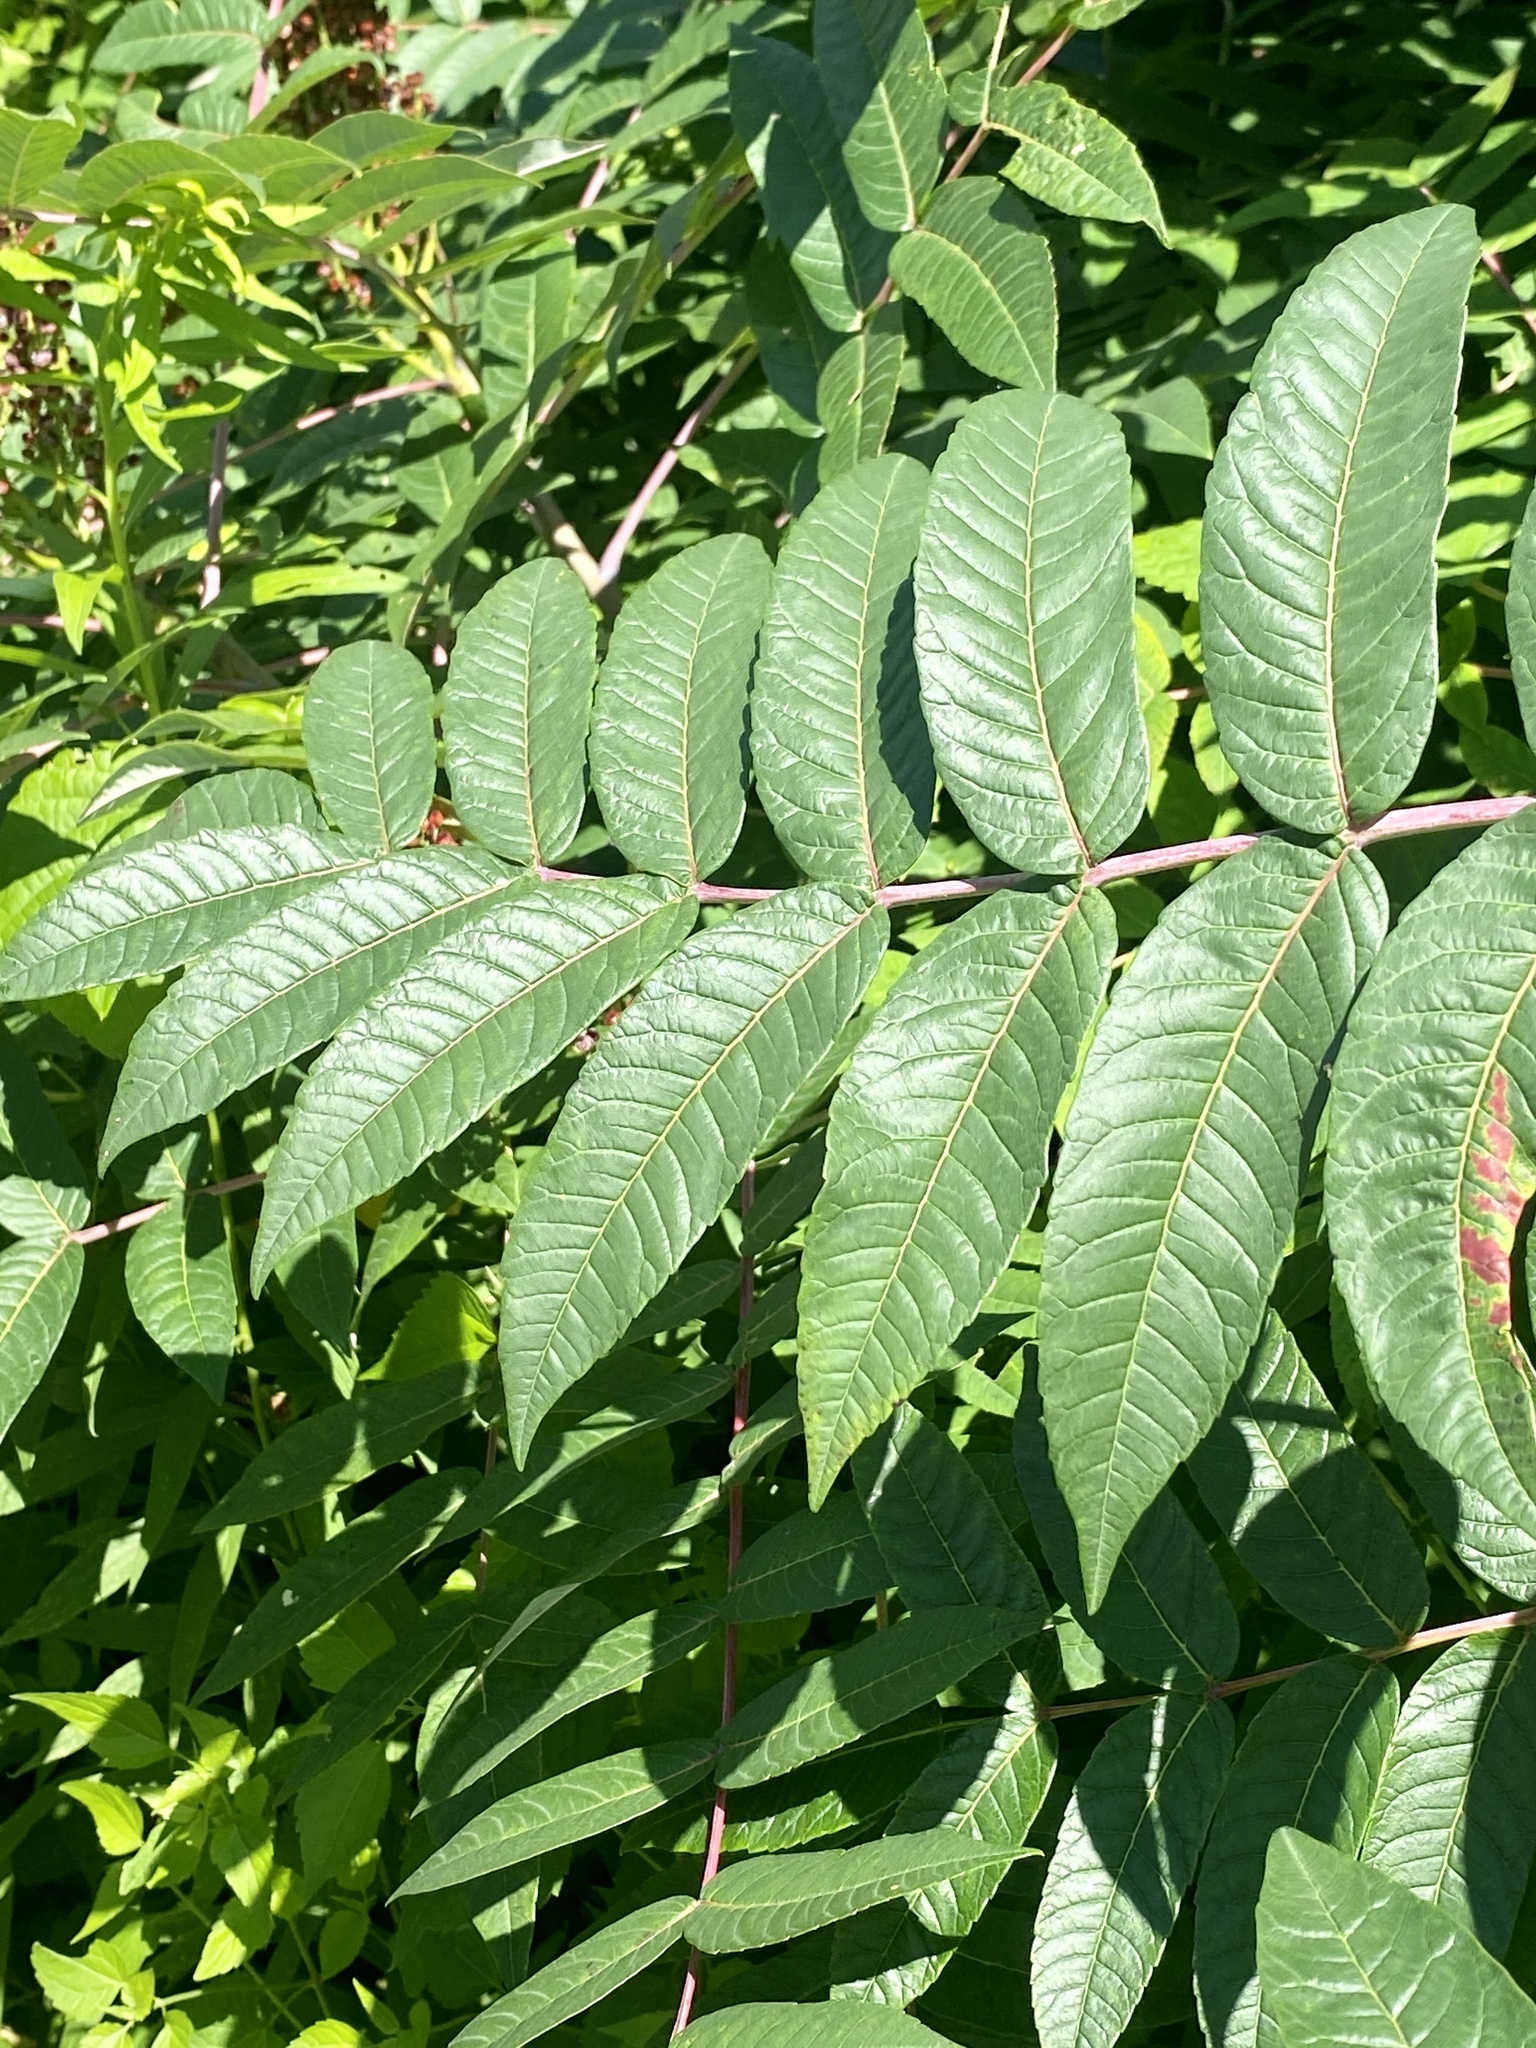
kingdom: Plantae
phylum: Tracheophyta
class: Magnoliopsida
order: Sapindales
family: Anacardiaceae
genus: Rhus
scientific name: Rhus glabra
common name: Scarlet sumac
